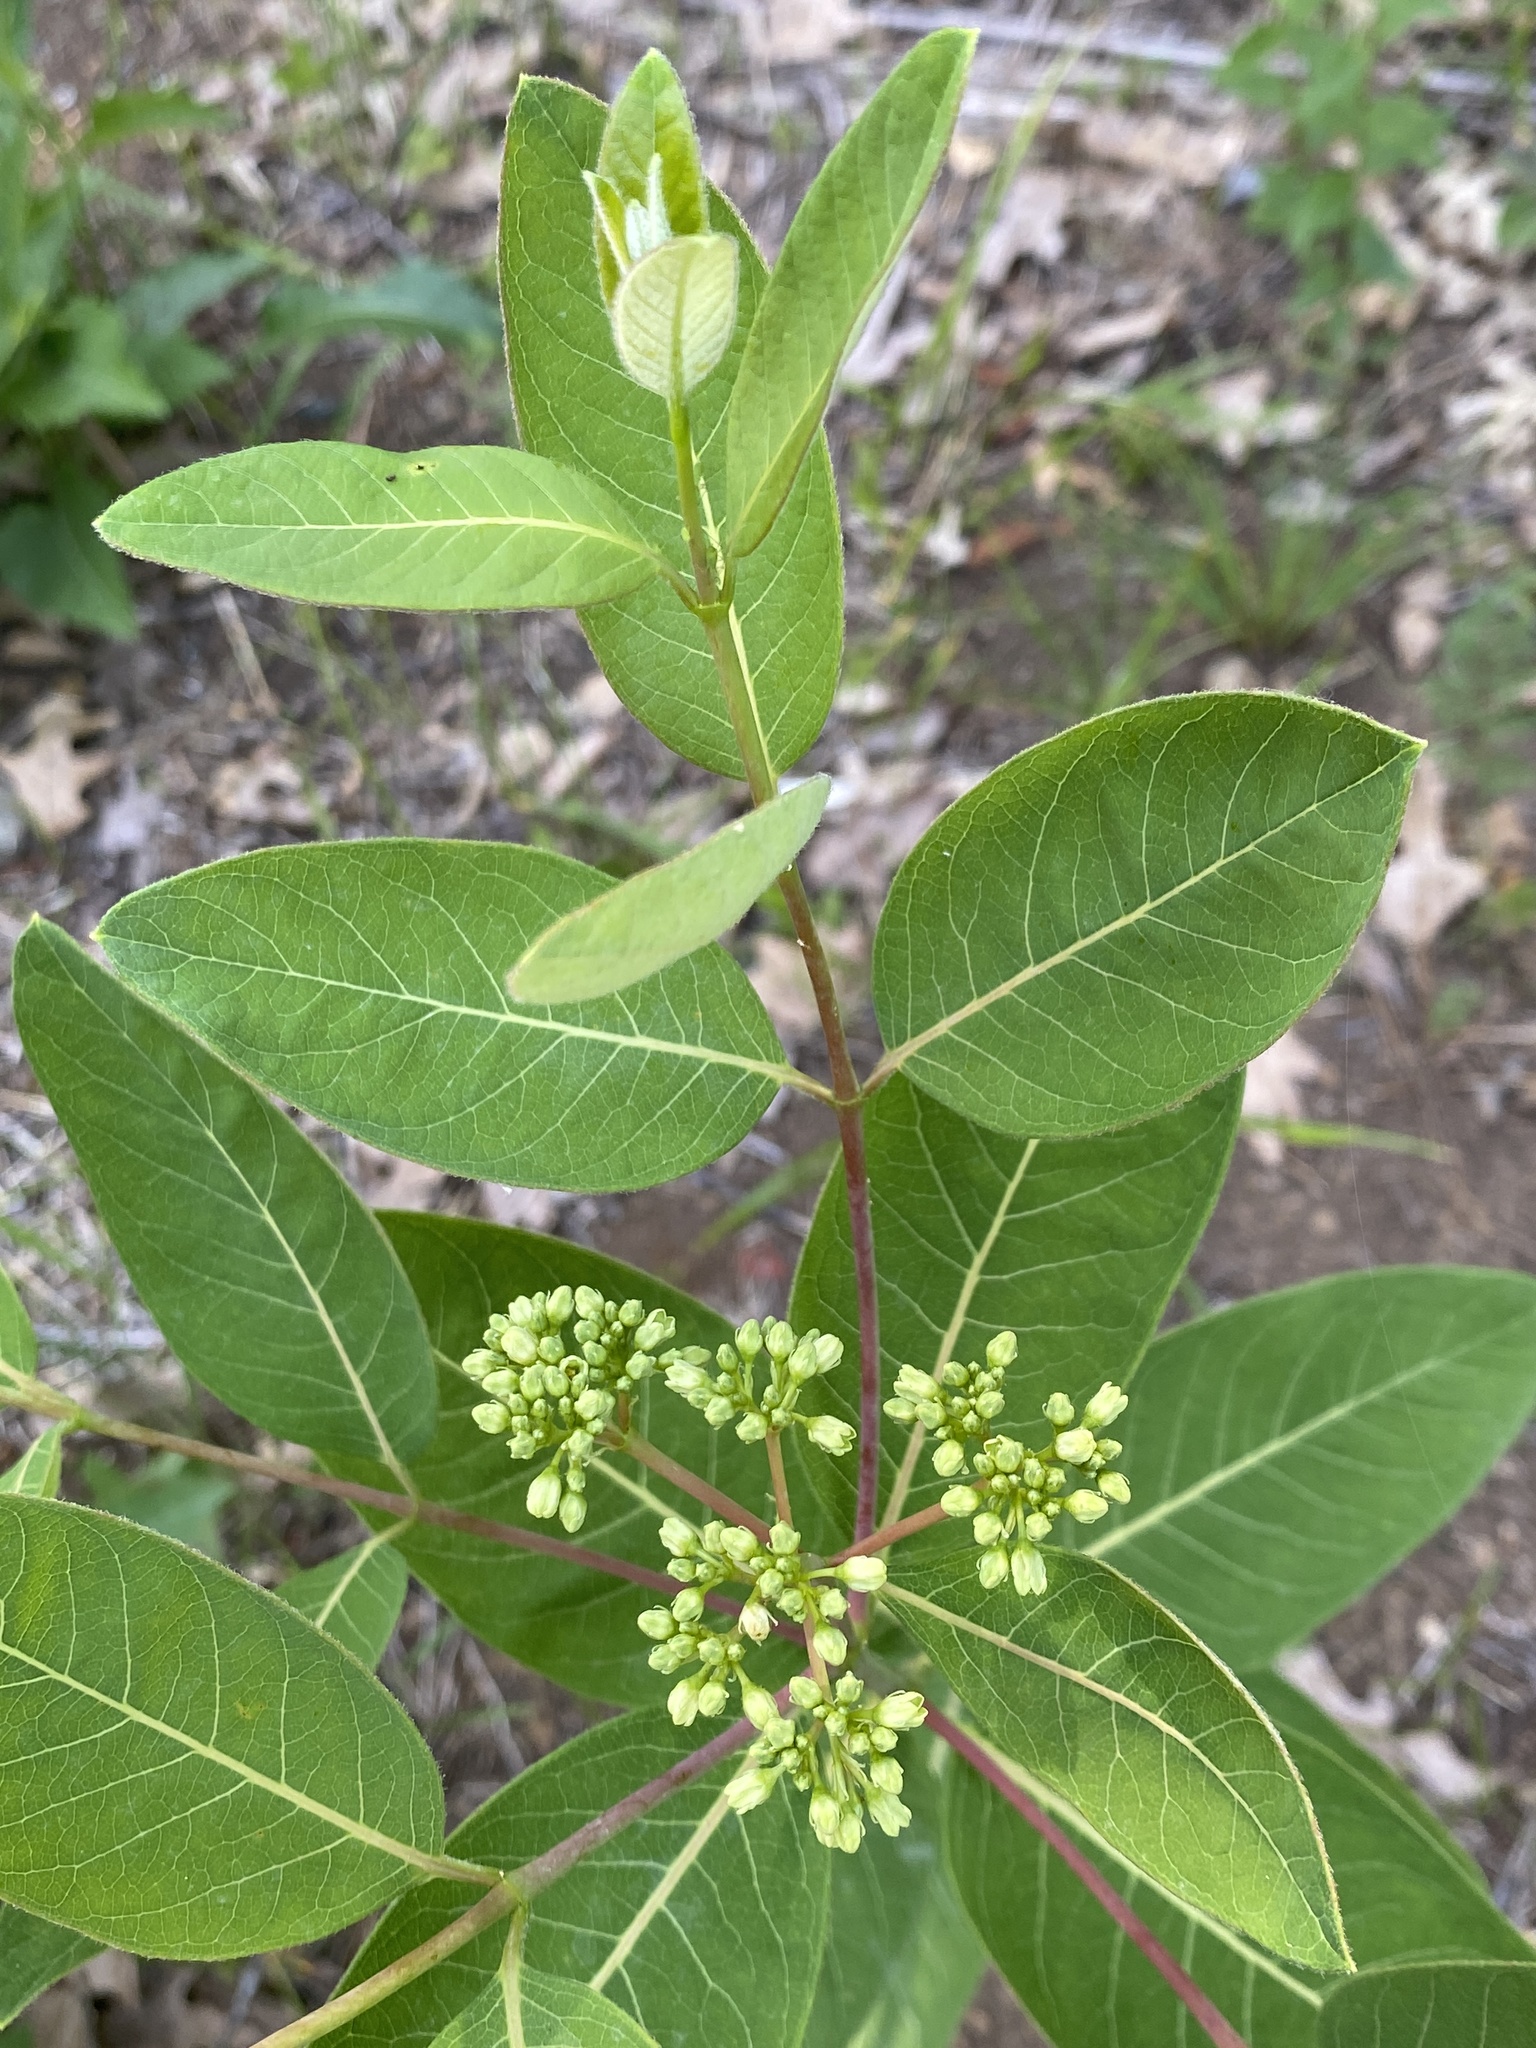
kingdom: Plantae
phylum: Tracheophyta
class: Magnoliopsida
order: Gentianales
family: Apocynaceae
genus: Apocynum
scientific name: Apocynum cannabinum
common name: Hemp dogbane
